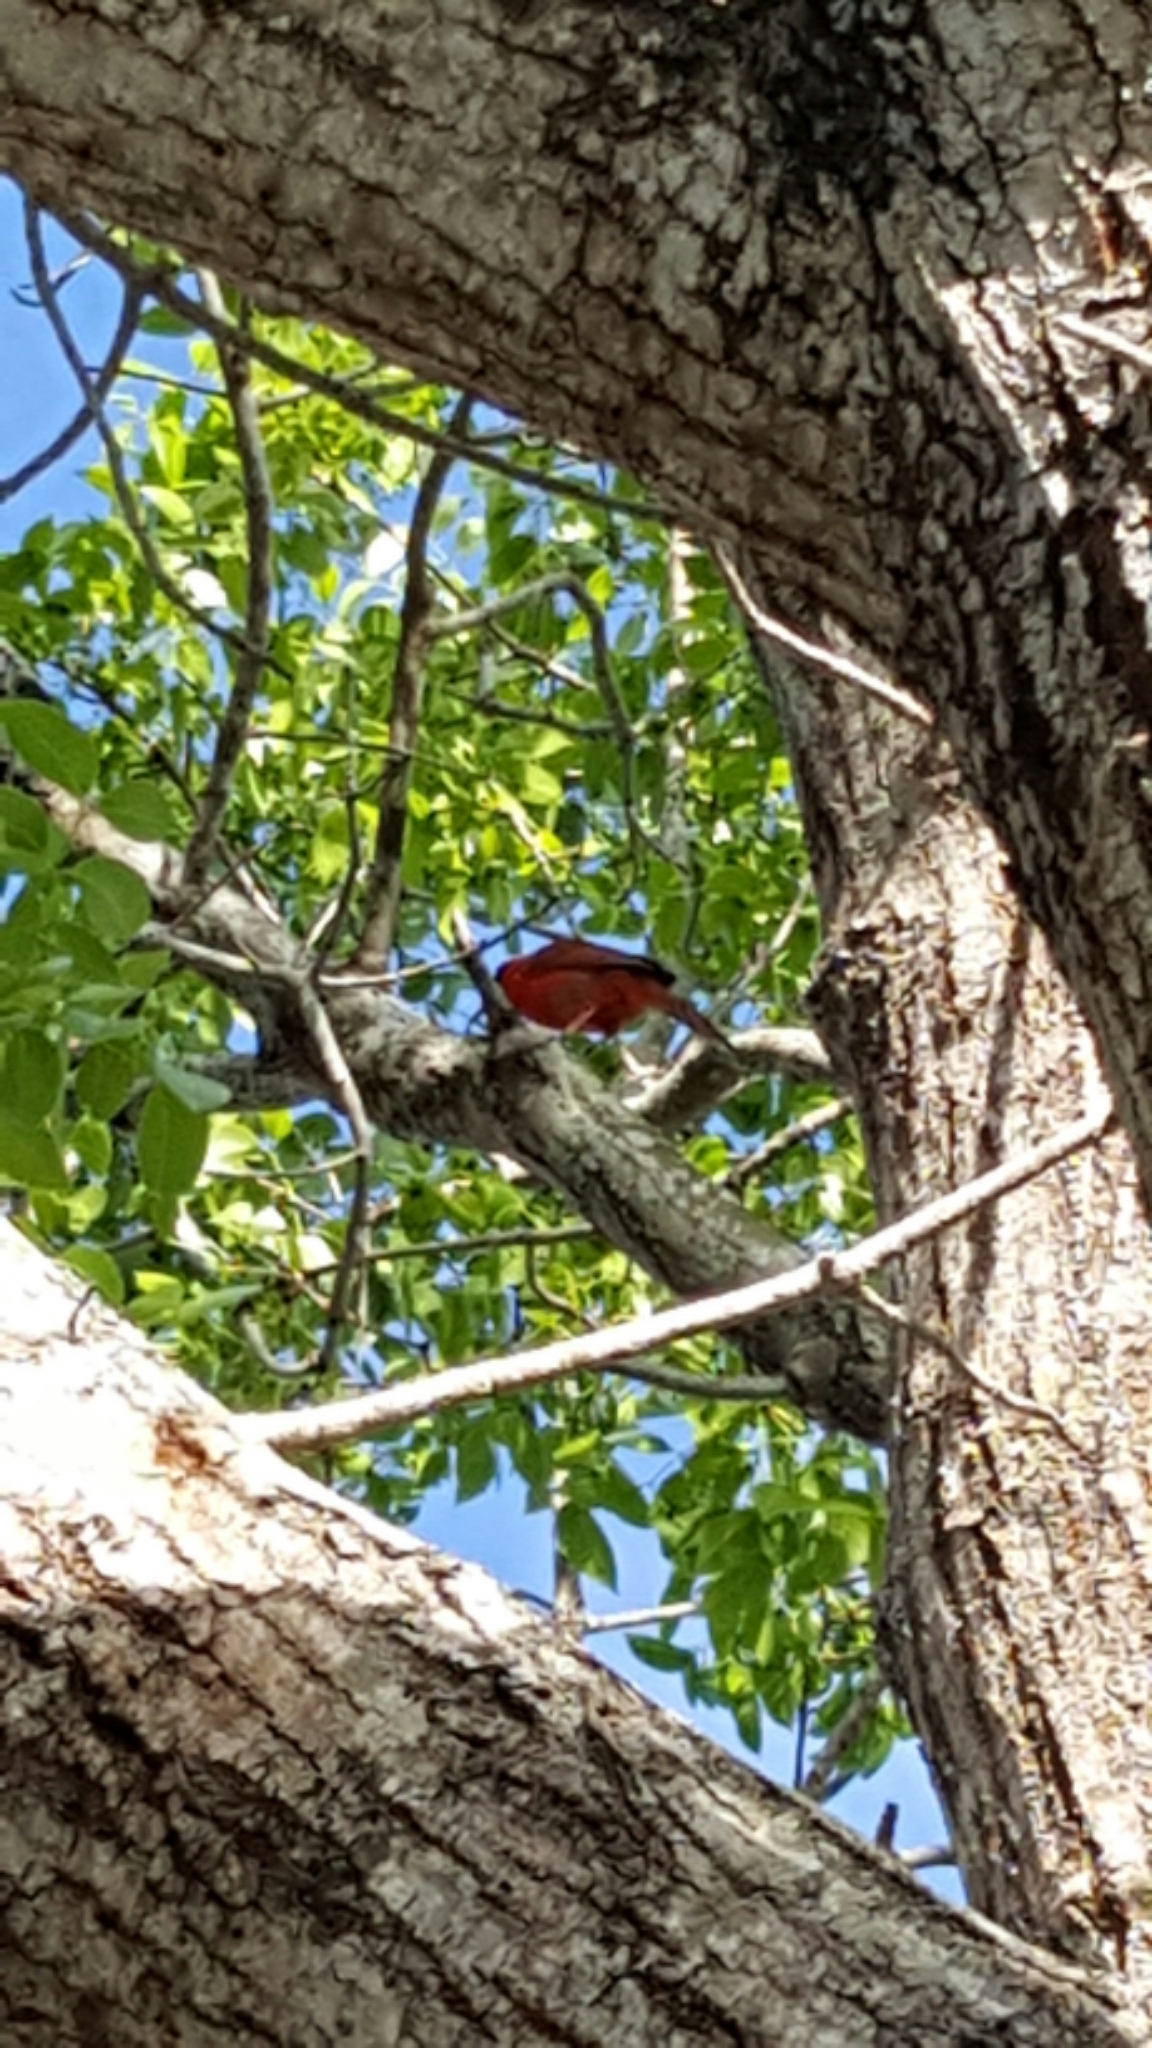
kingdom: Animalia
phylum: Chordata
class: Aves
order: Passeriformes
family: Cardinalidae
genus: Cardinalis
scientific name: Cardinalis cardinalis
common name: Northern cardinal
